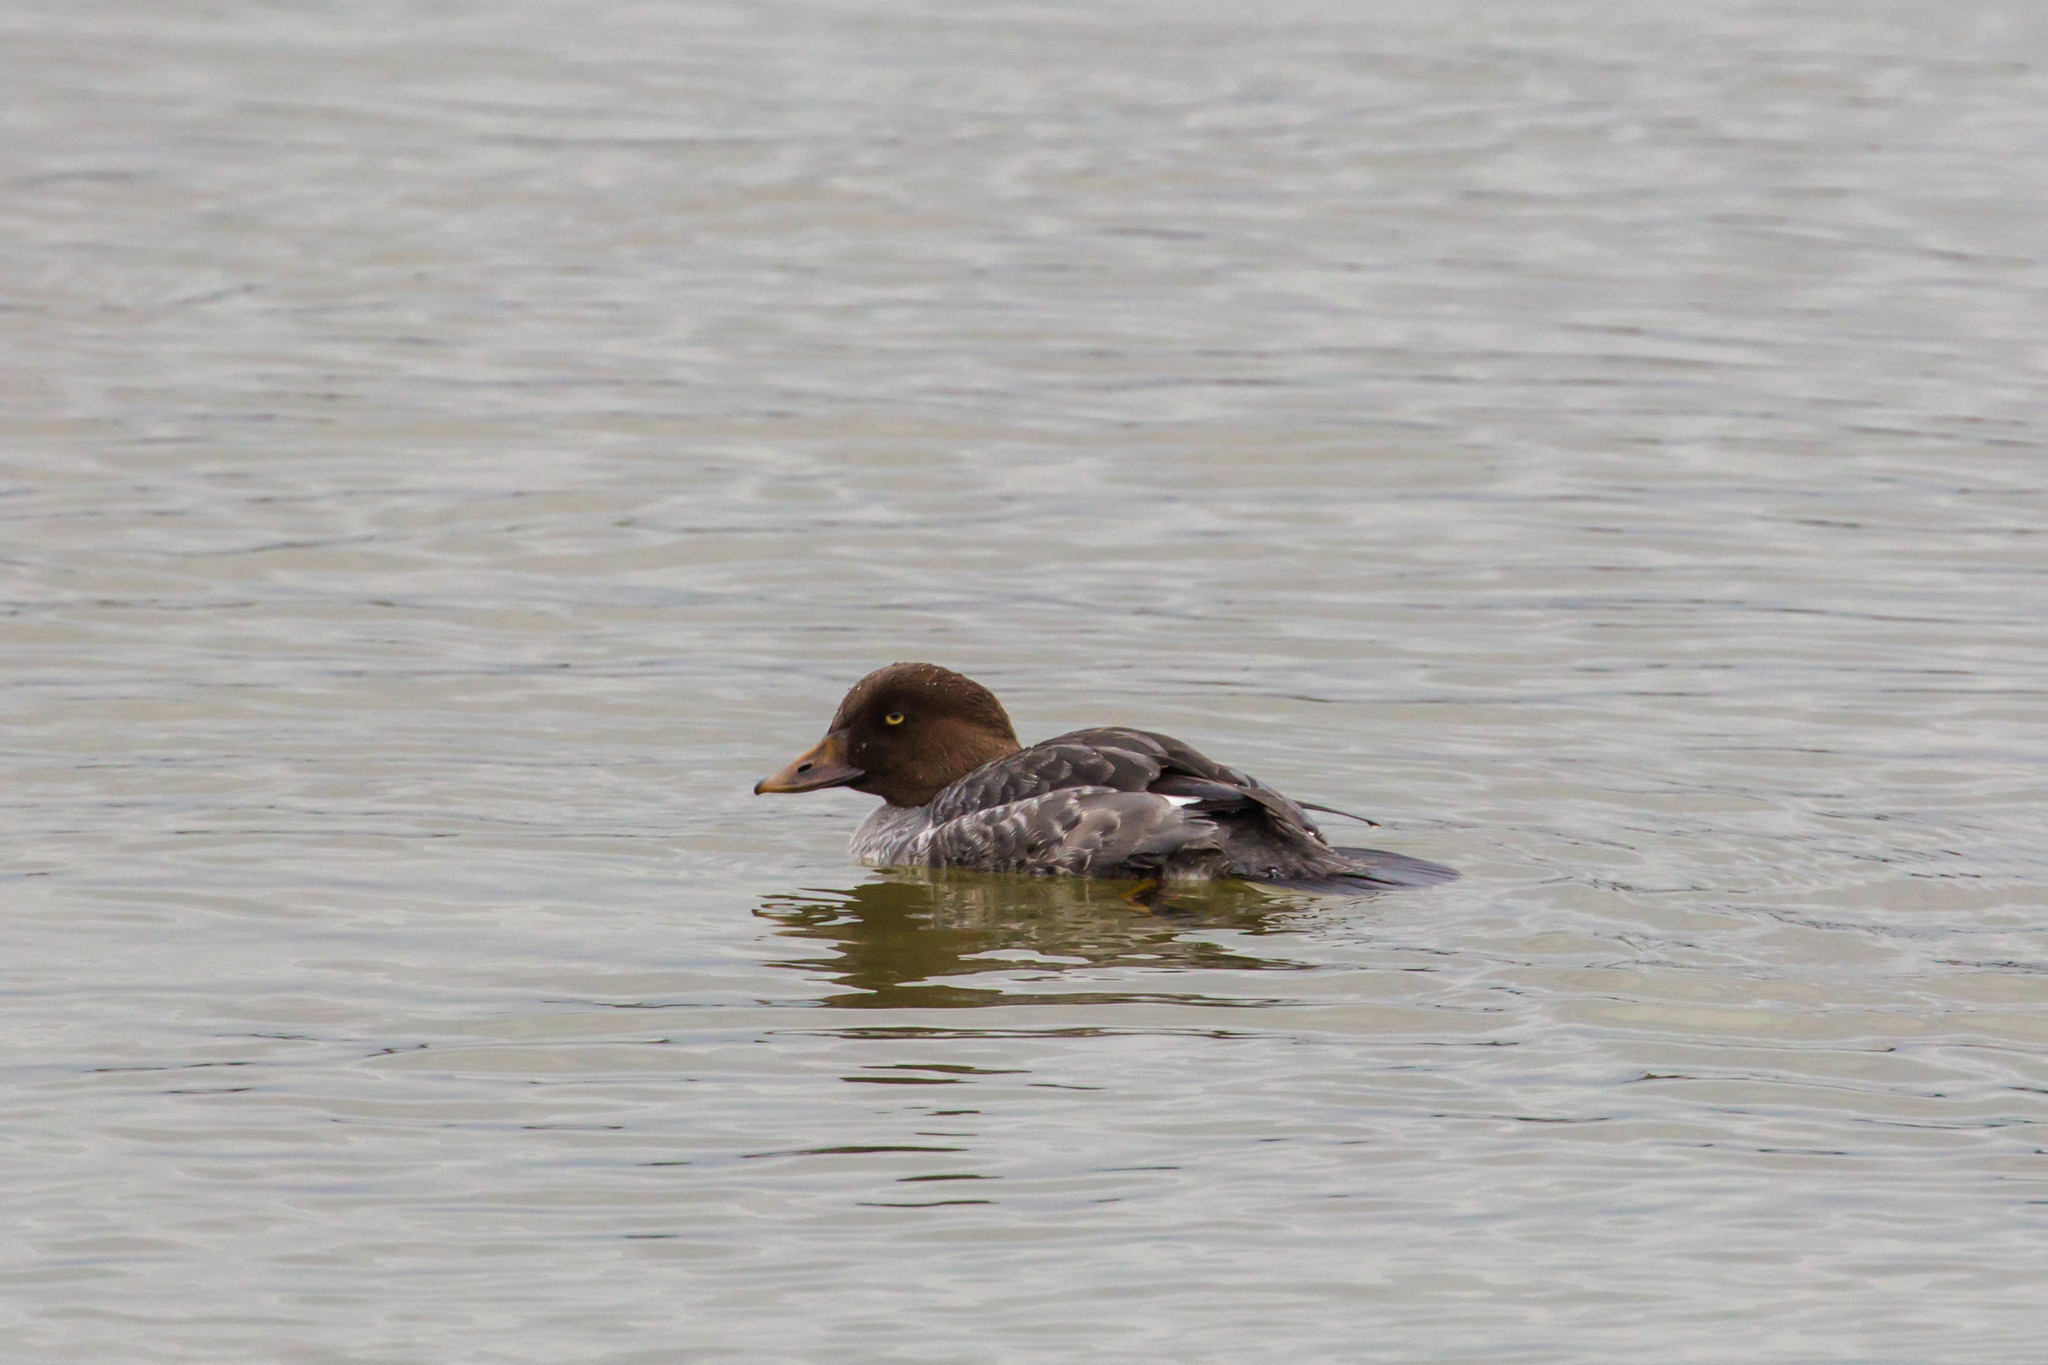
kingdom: Animalia
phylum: Chordata
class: Aves
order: Anseriformes
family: Anatidae
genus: Bucephala
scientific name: Bucephala clangula
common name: Common goldeneye
